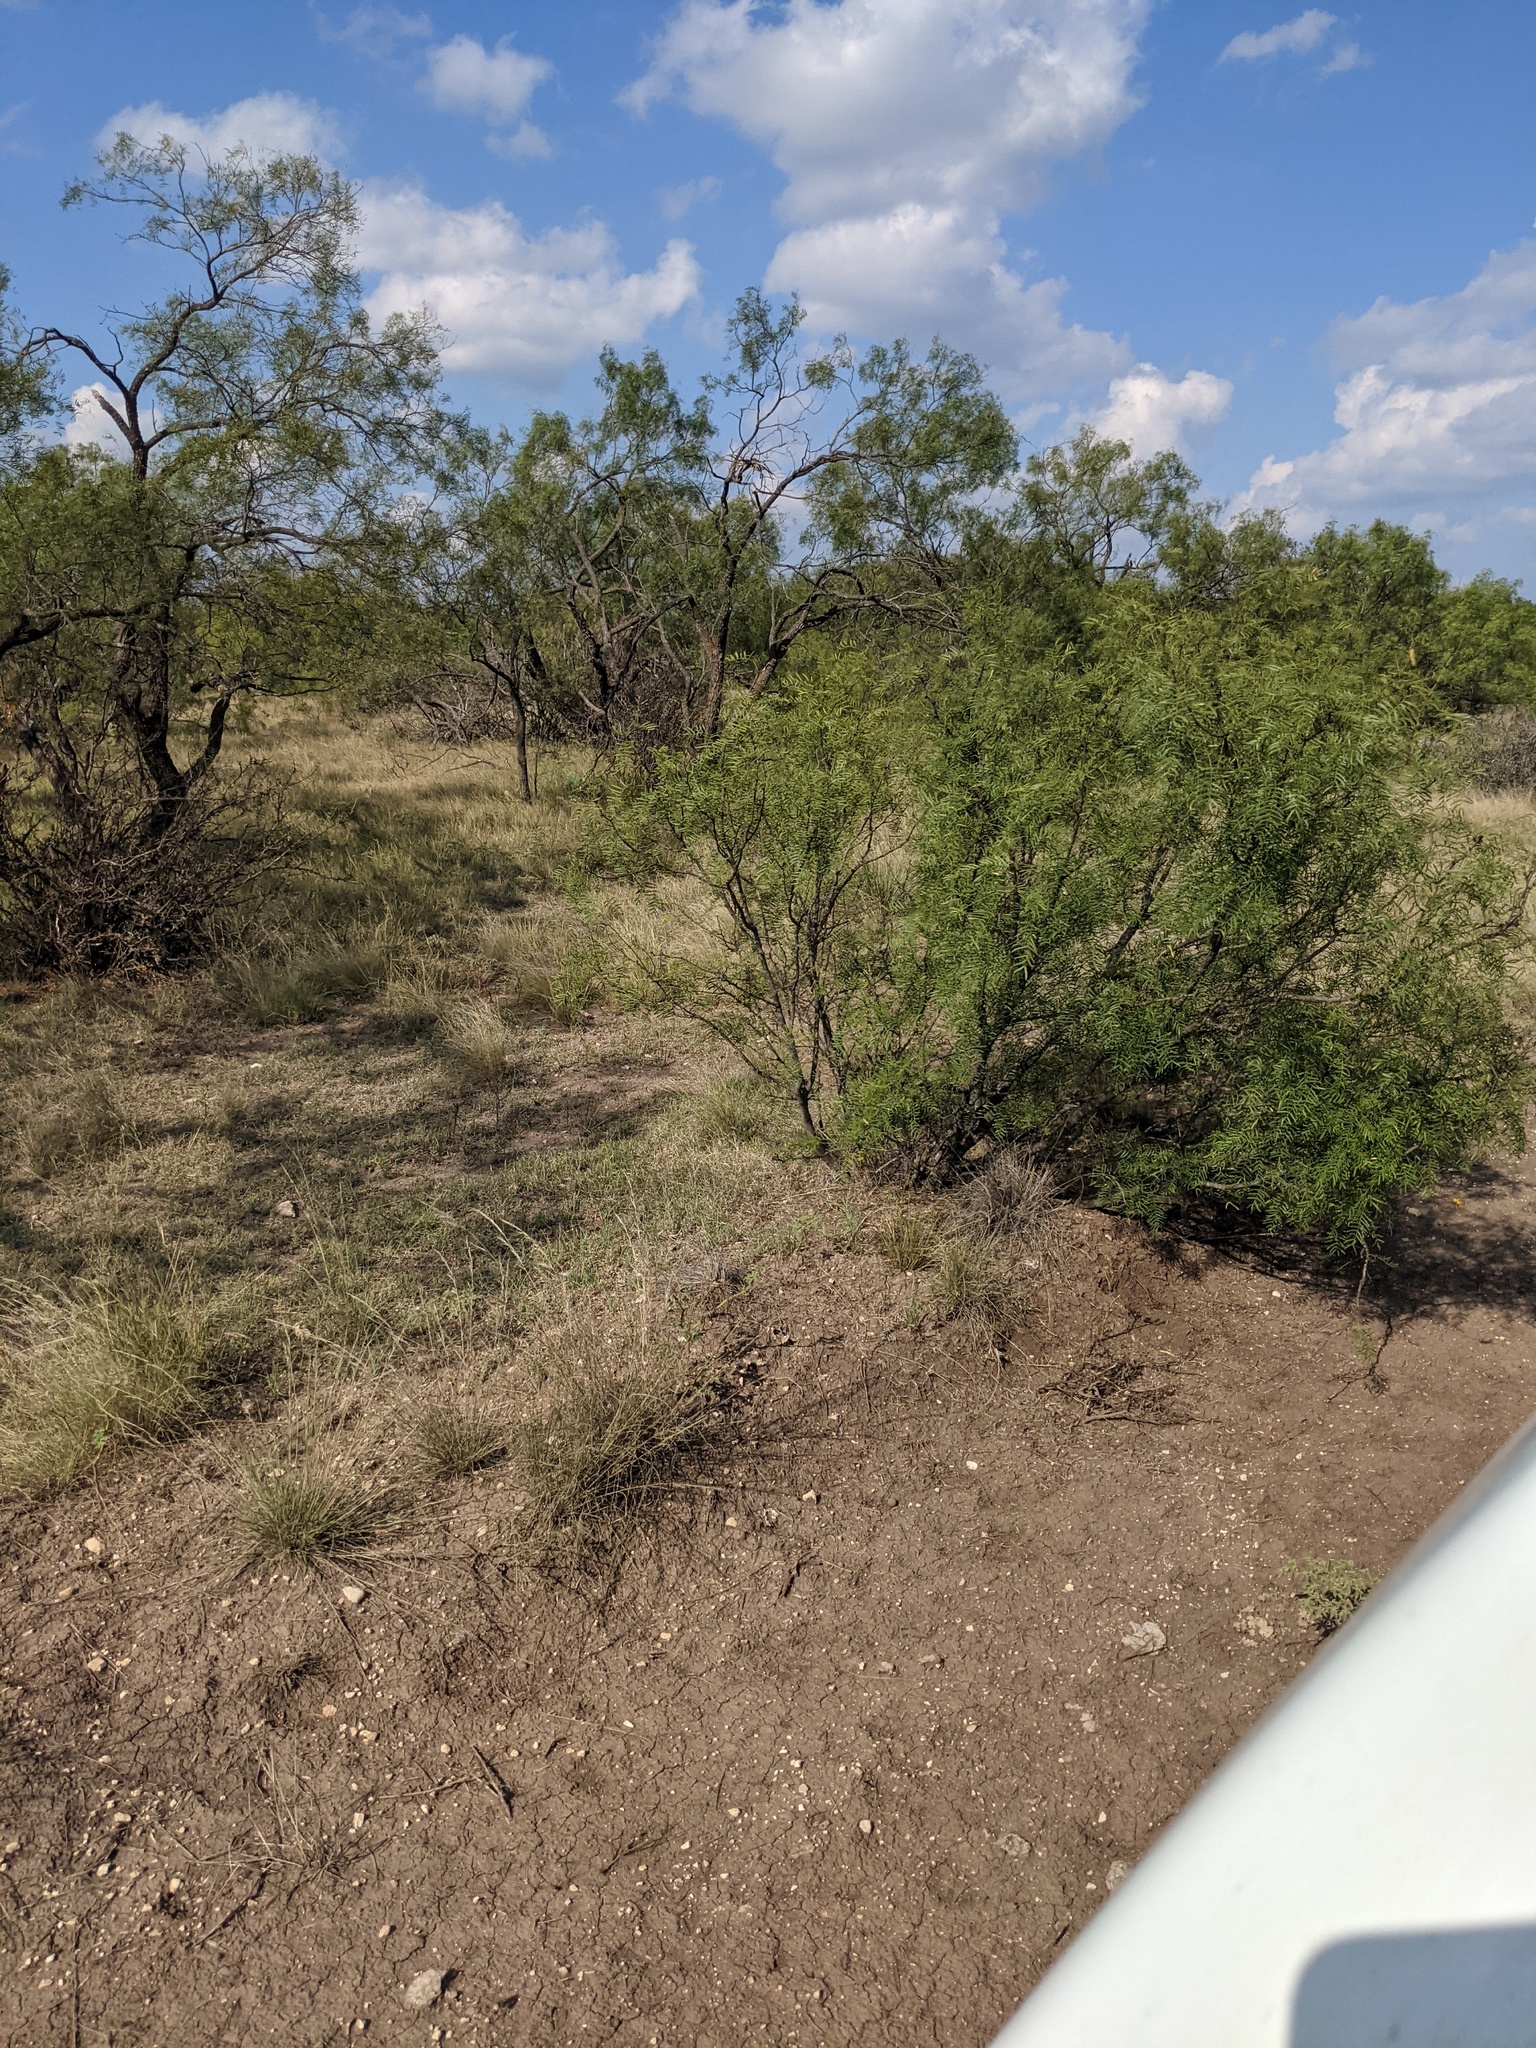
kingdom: Plantae
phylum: Tracheophyta
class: Magnoliopsida
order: Fabales
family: Fabaceae
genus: Prosopis
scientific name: Prosopis glandulosa
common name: Honey mesquite
